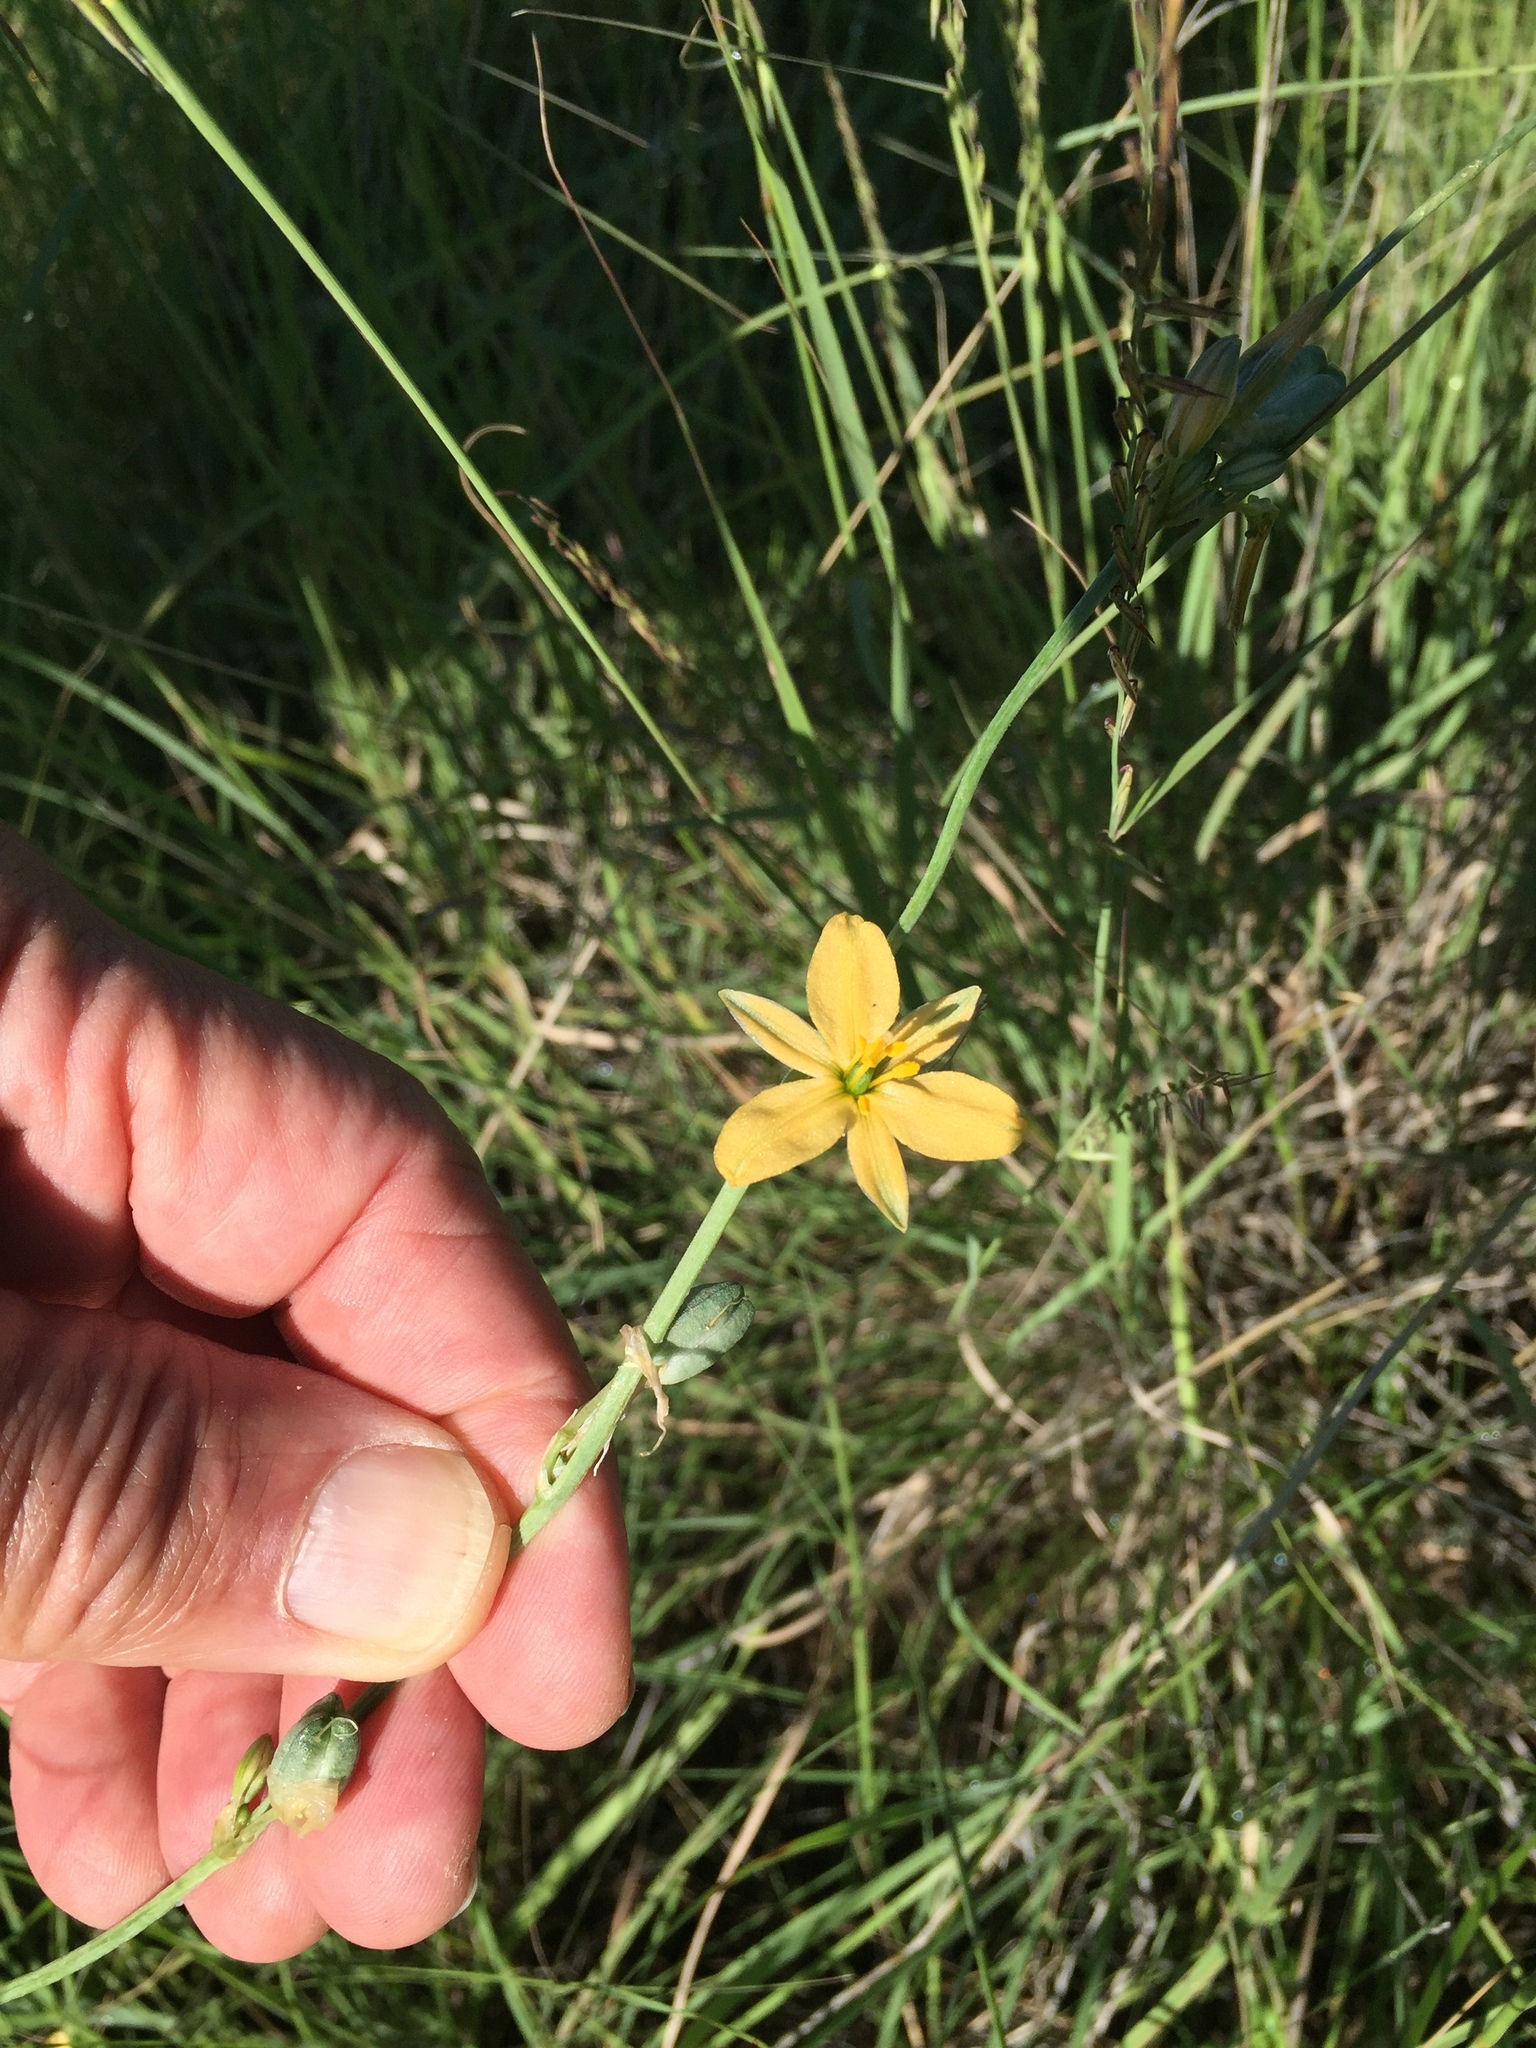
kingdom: Plantae
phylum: Tracheophyta
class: Liliopsida
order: Asparagales
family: Asparagaceae
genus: Echeandia
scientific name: Echeandia flavescens
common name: Amberlily
